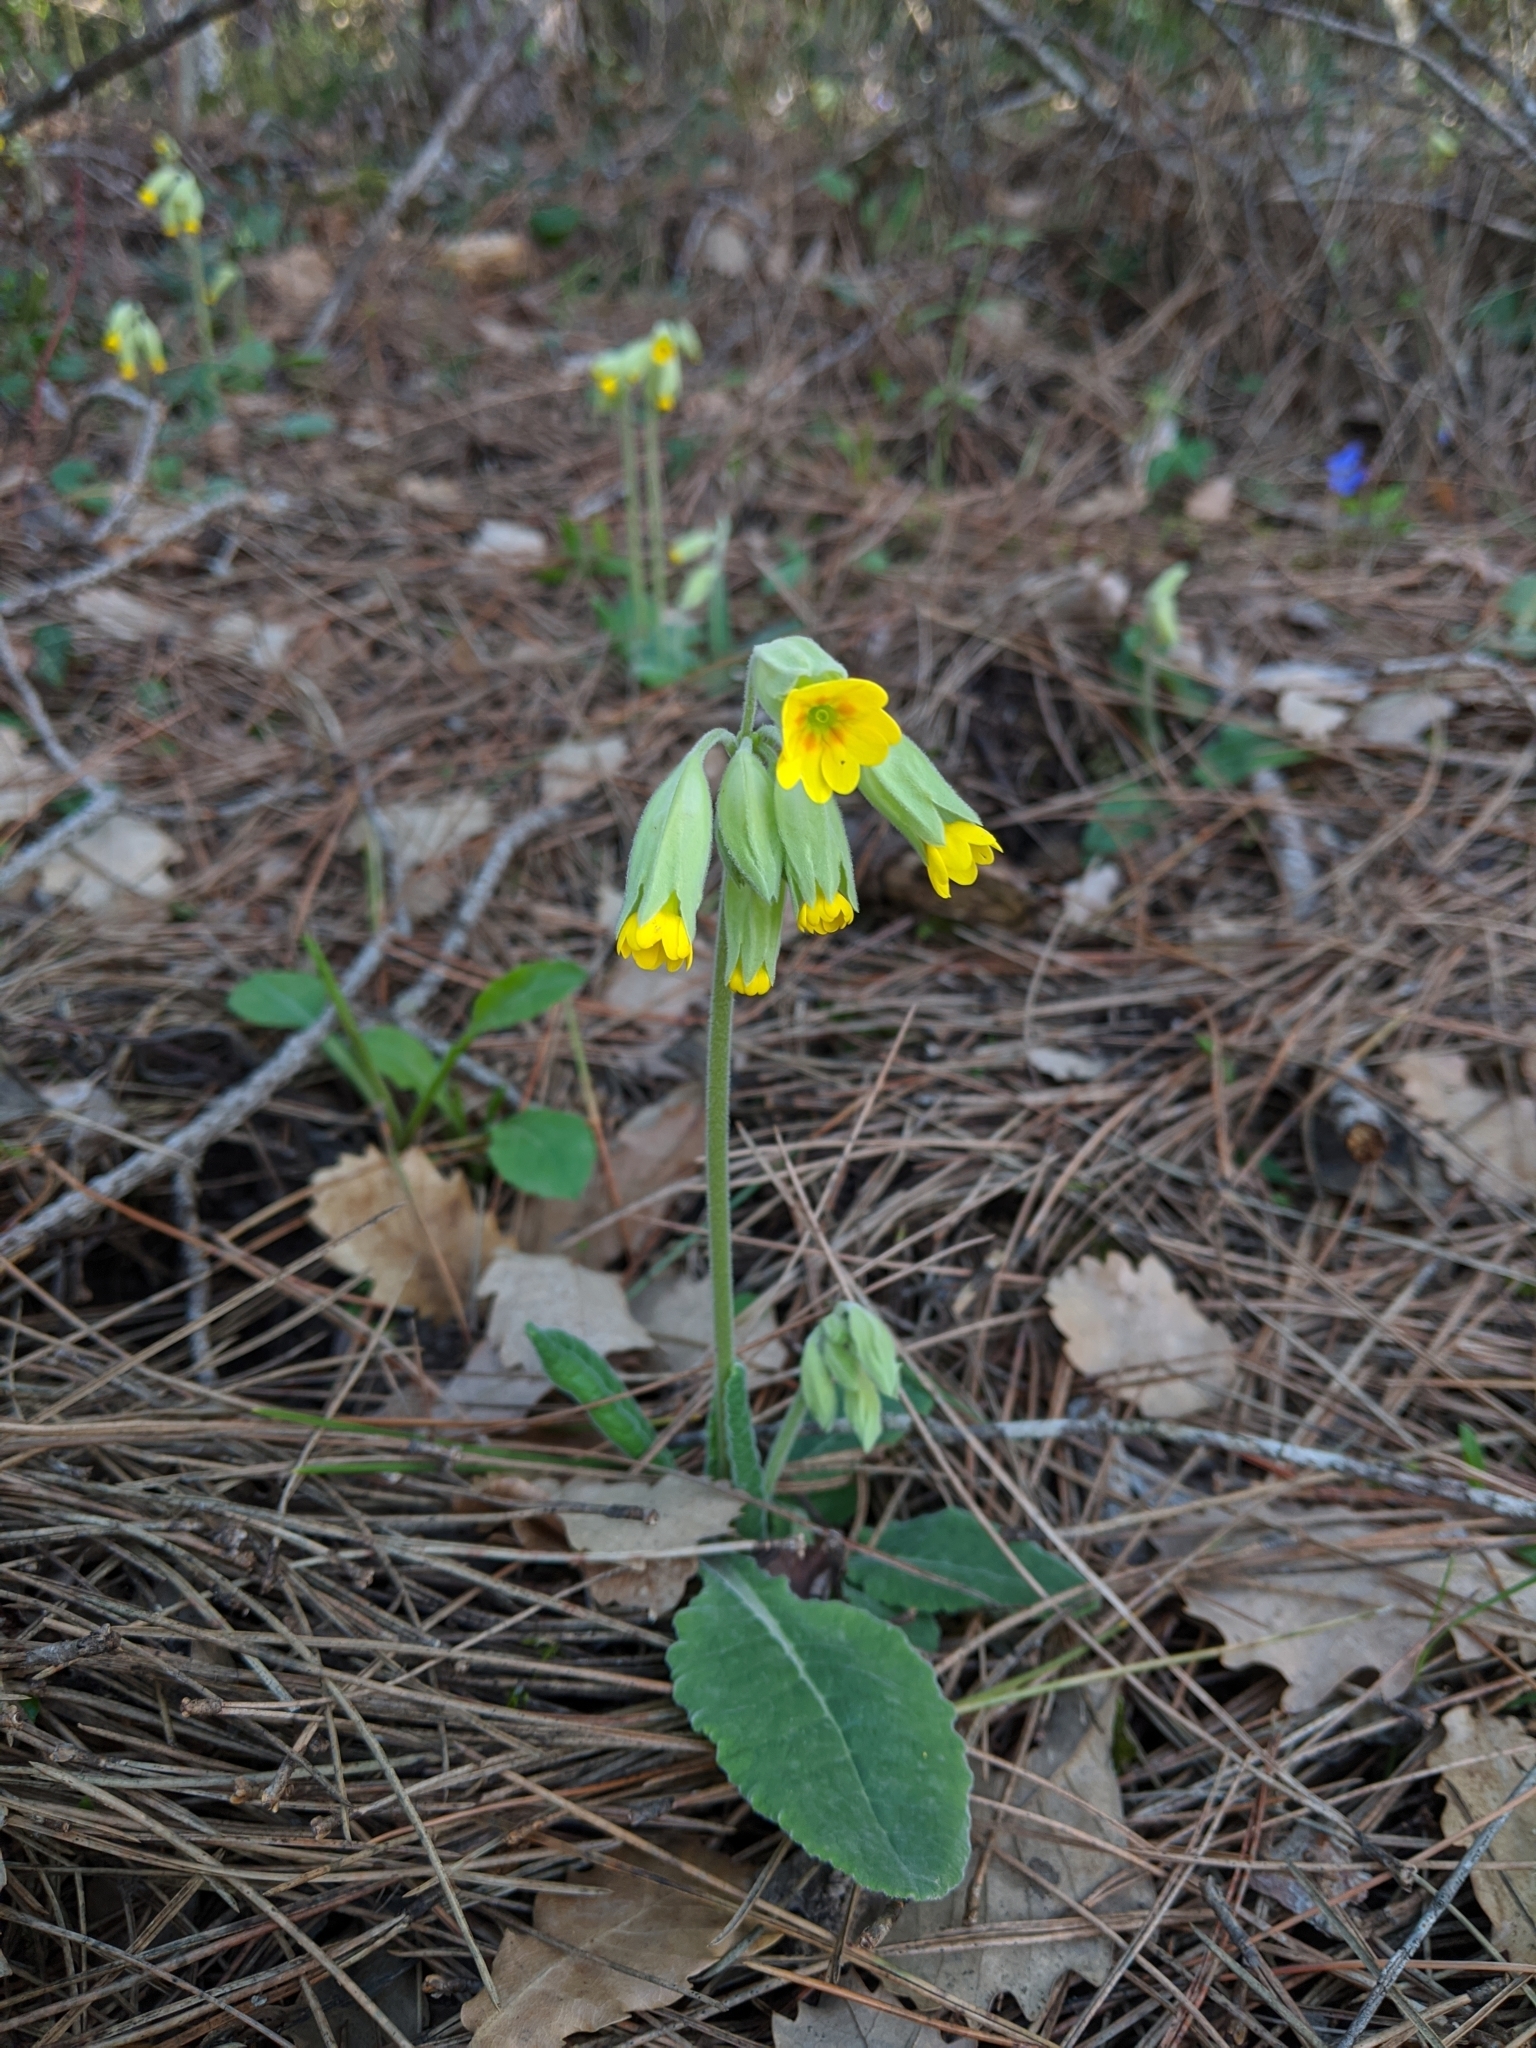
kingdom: Plantae
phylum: Tracheophyta
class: Magnoliopsida
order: Ericales
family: Primulaceae
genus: Primula
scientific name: Primula veris
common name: Cowslip
